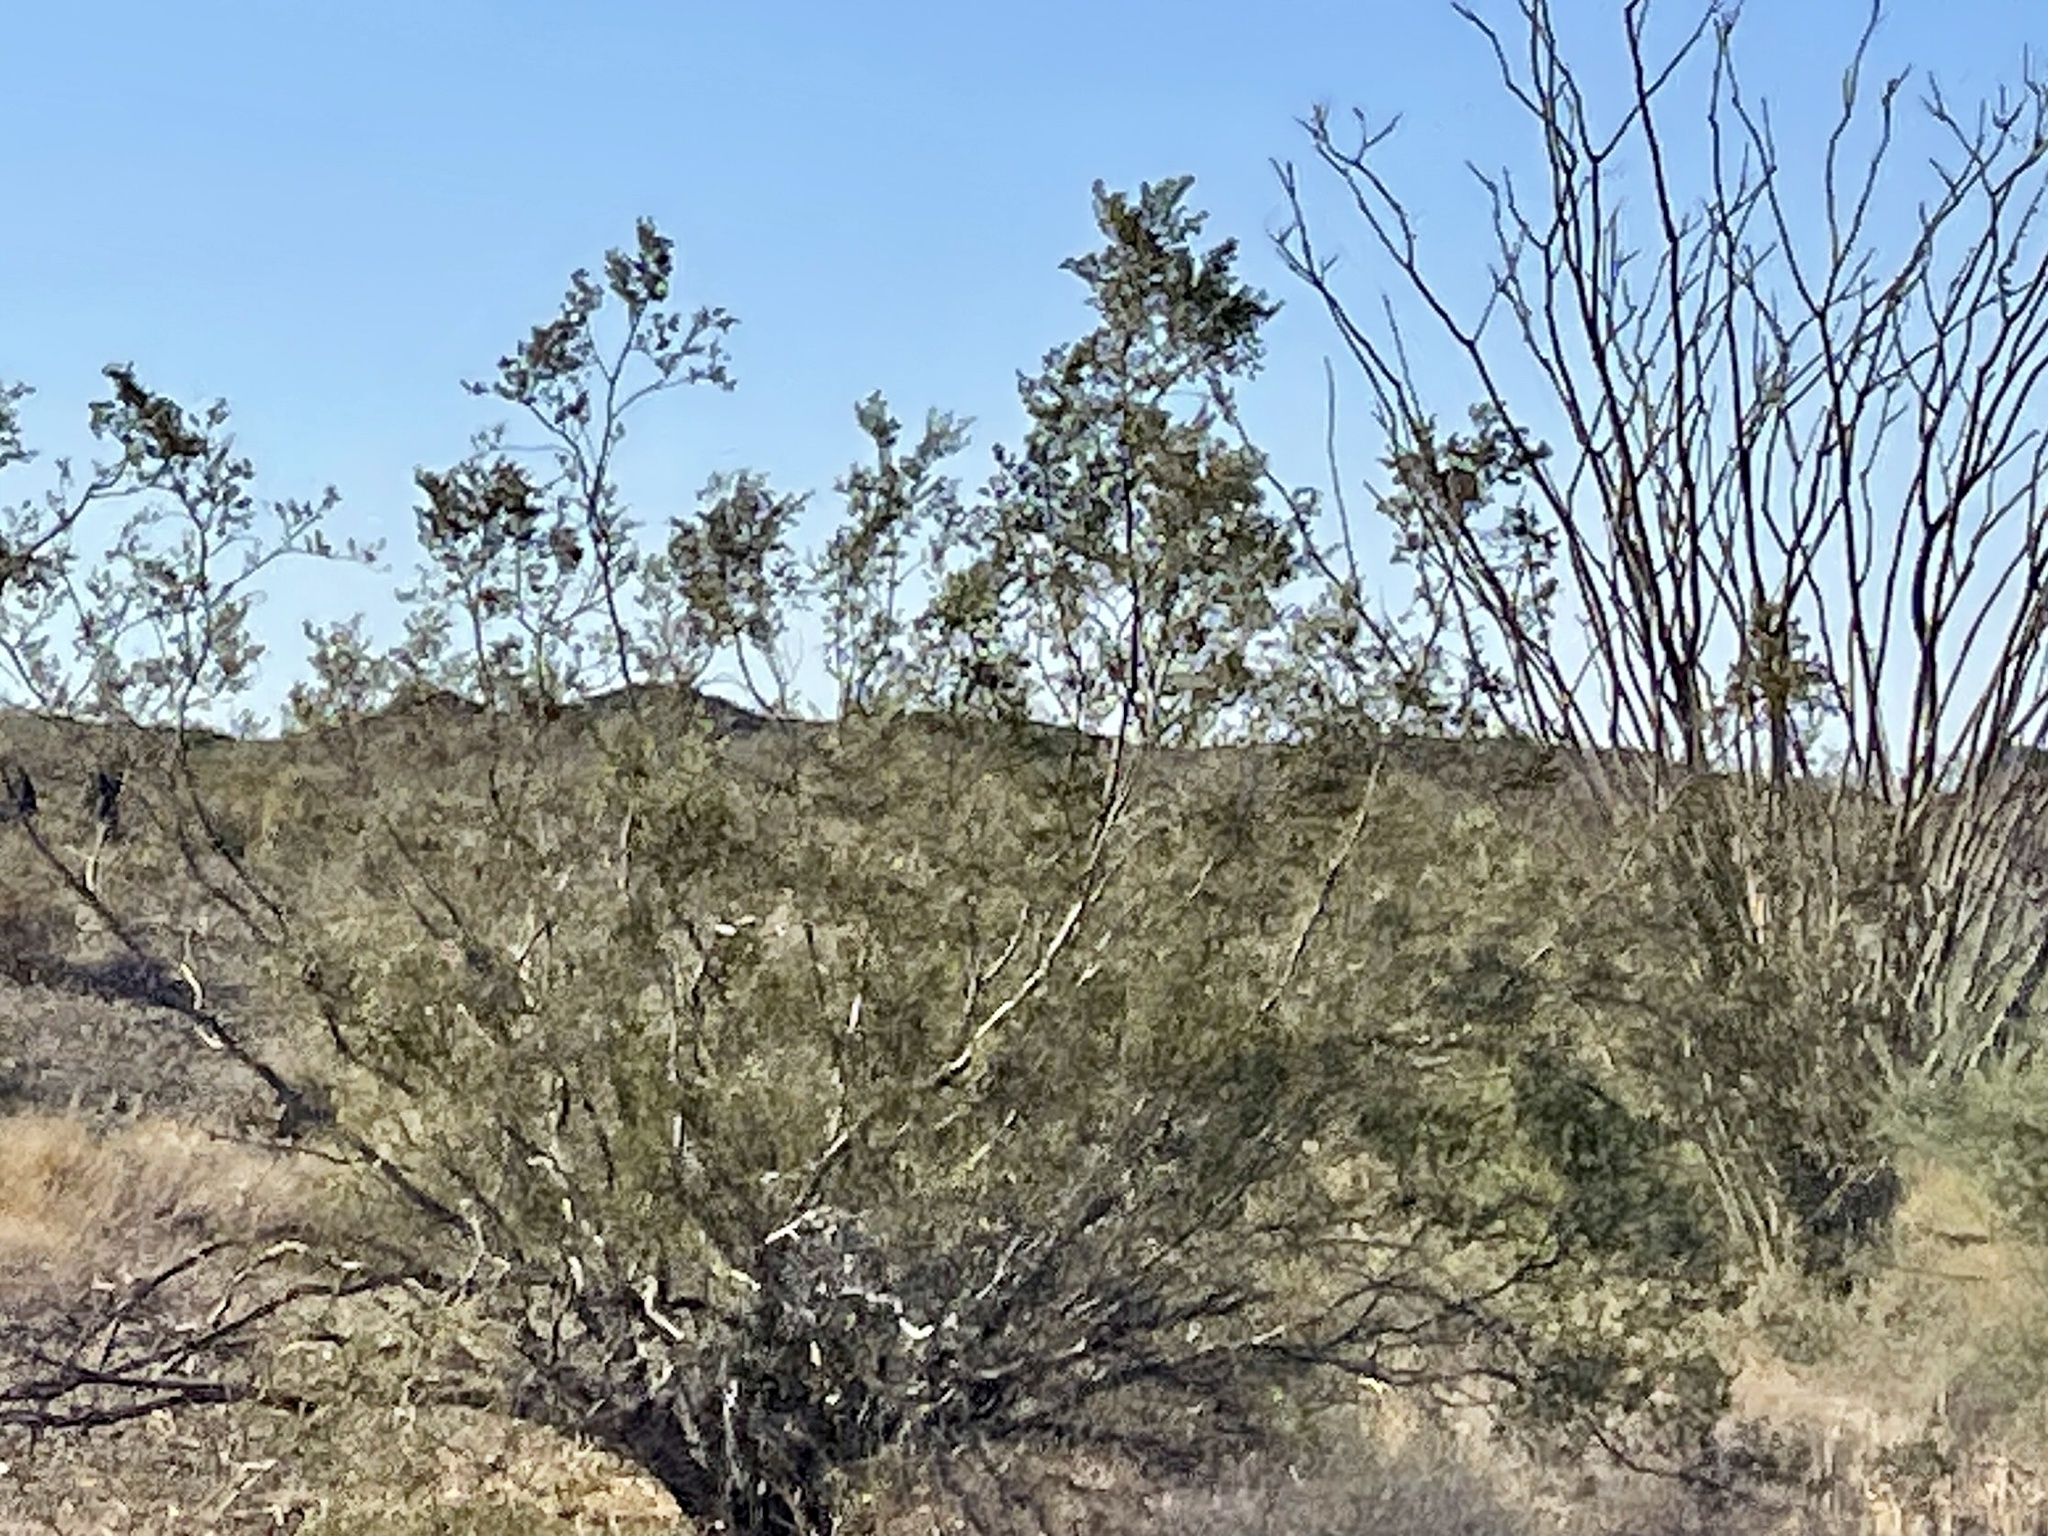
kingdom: Plantae
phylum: Tracheophyta
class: Magnoliopsida
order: Zygophyllales
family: Zygophyllaceae
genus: Larrea
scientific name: Larrea tridentata
